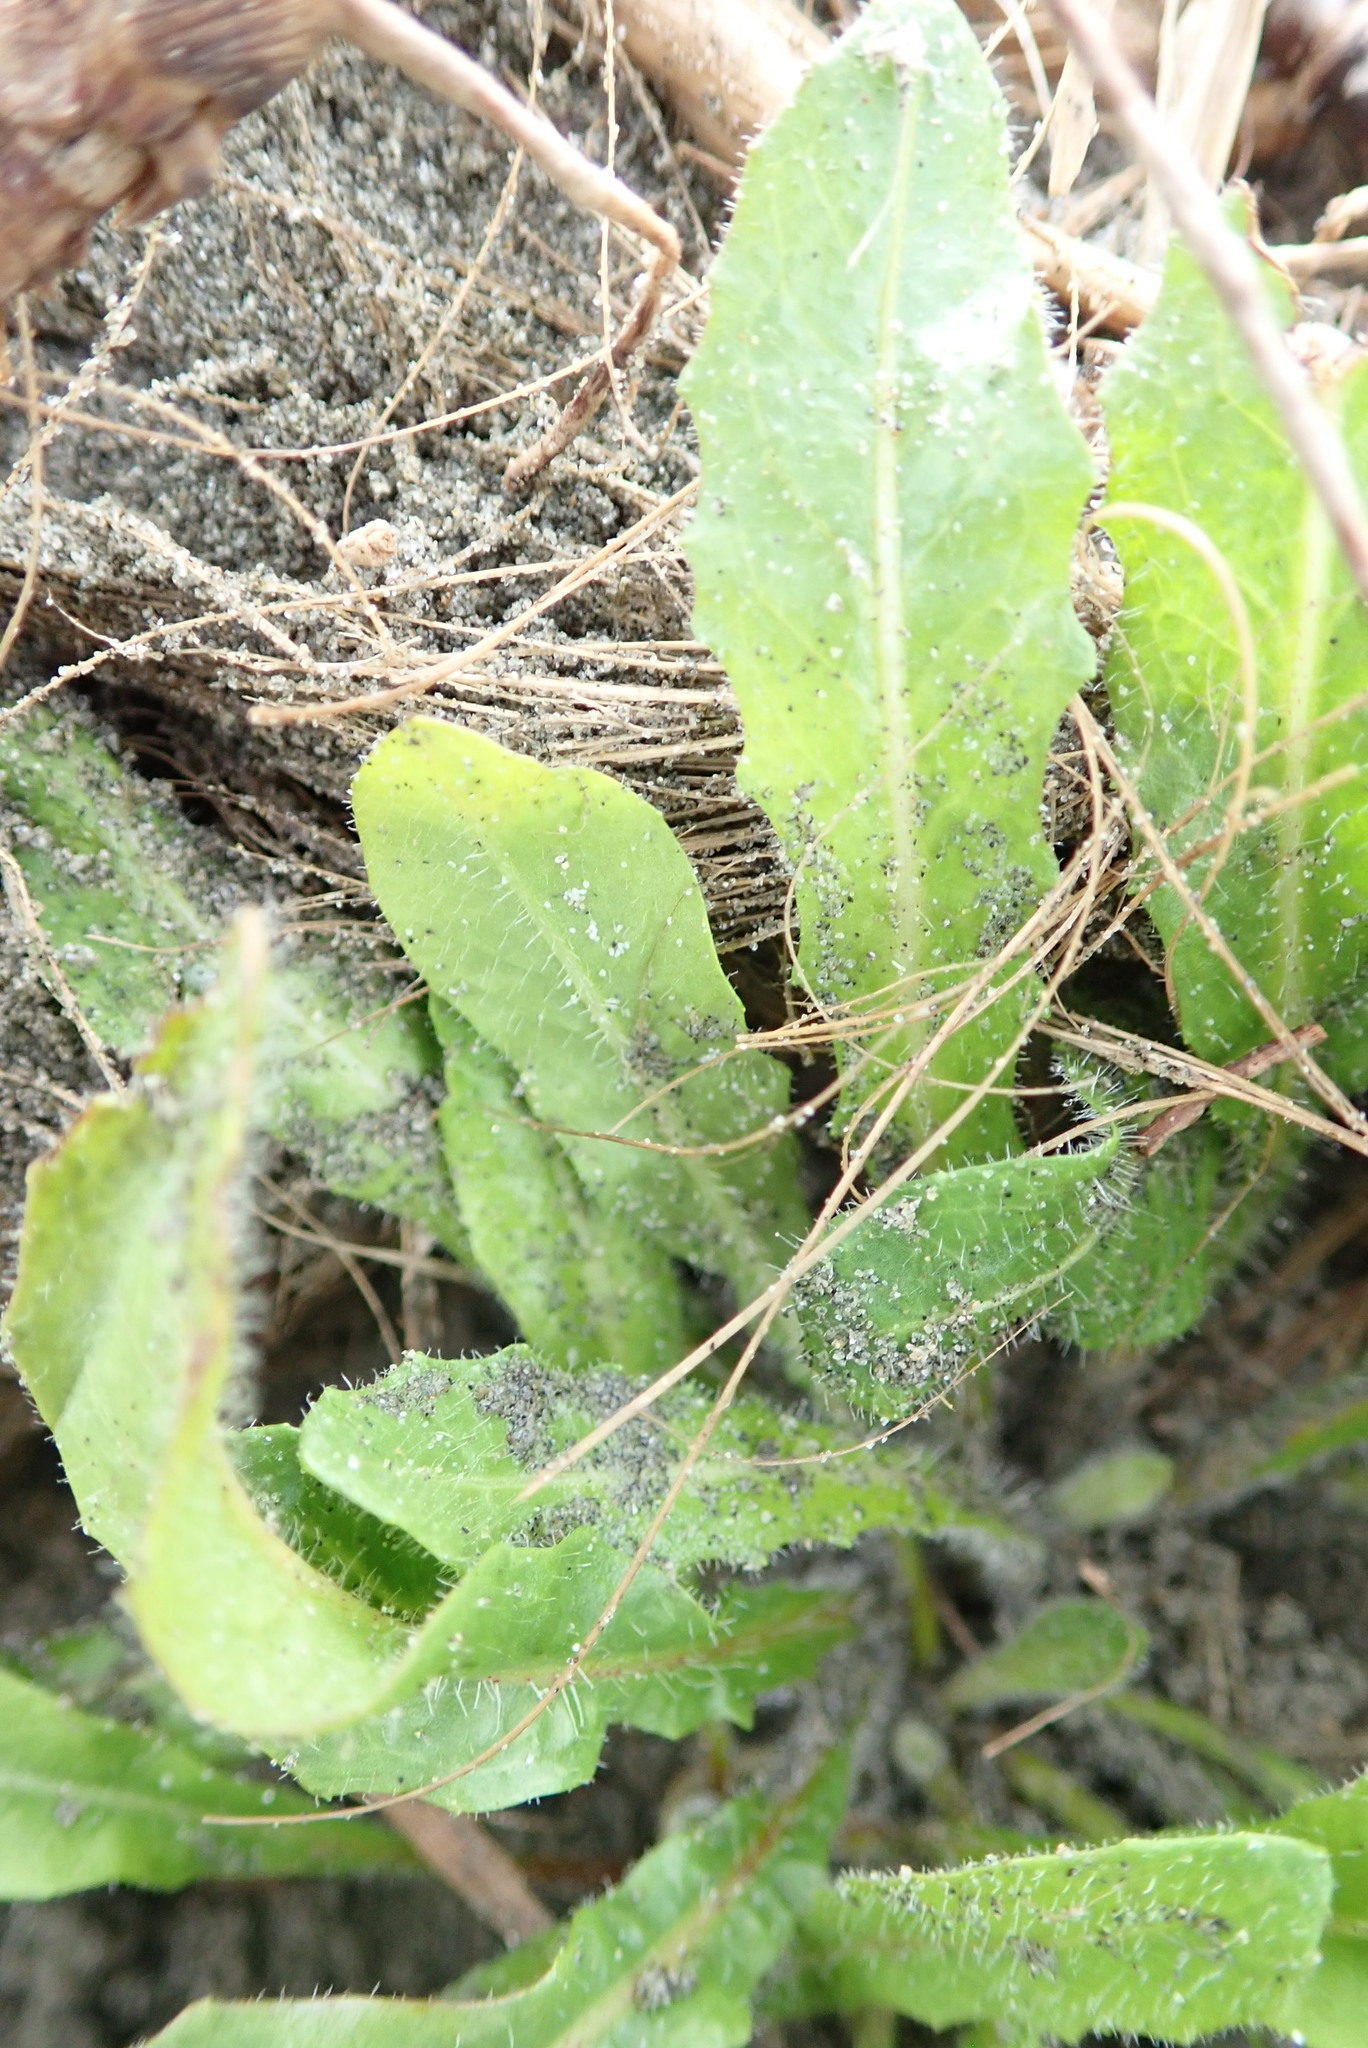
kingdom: Plantae
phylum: Tracheophyta
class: Magnoliopsida
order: Asterales
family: Asteraceae
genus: Hypochaeris
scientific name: Hypochaeris radicata
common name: Flatweed
